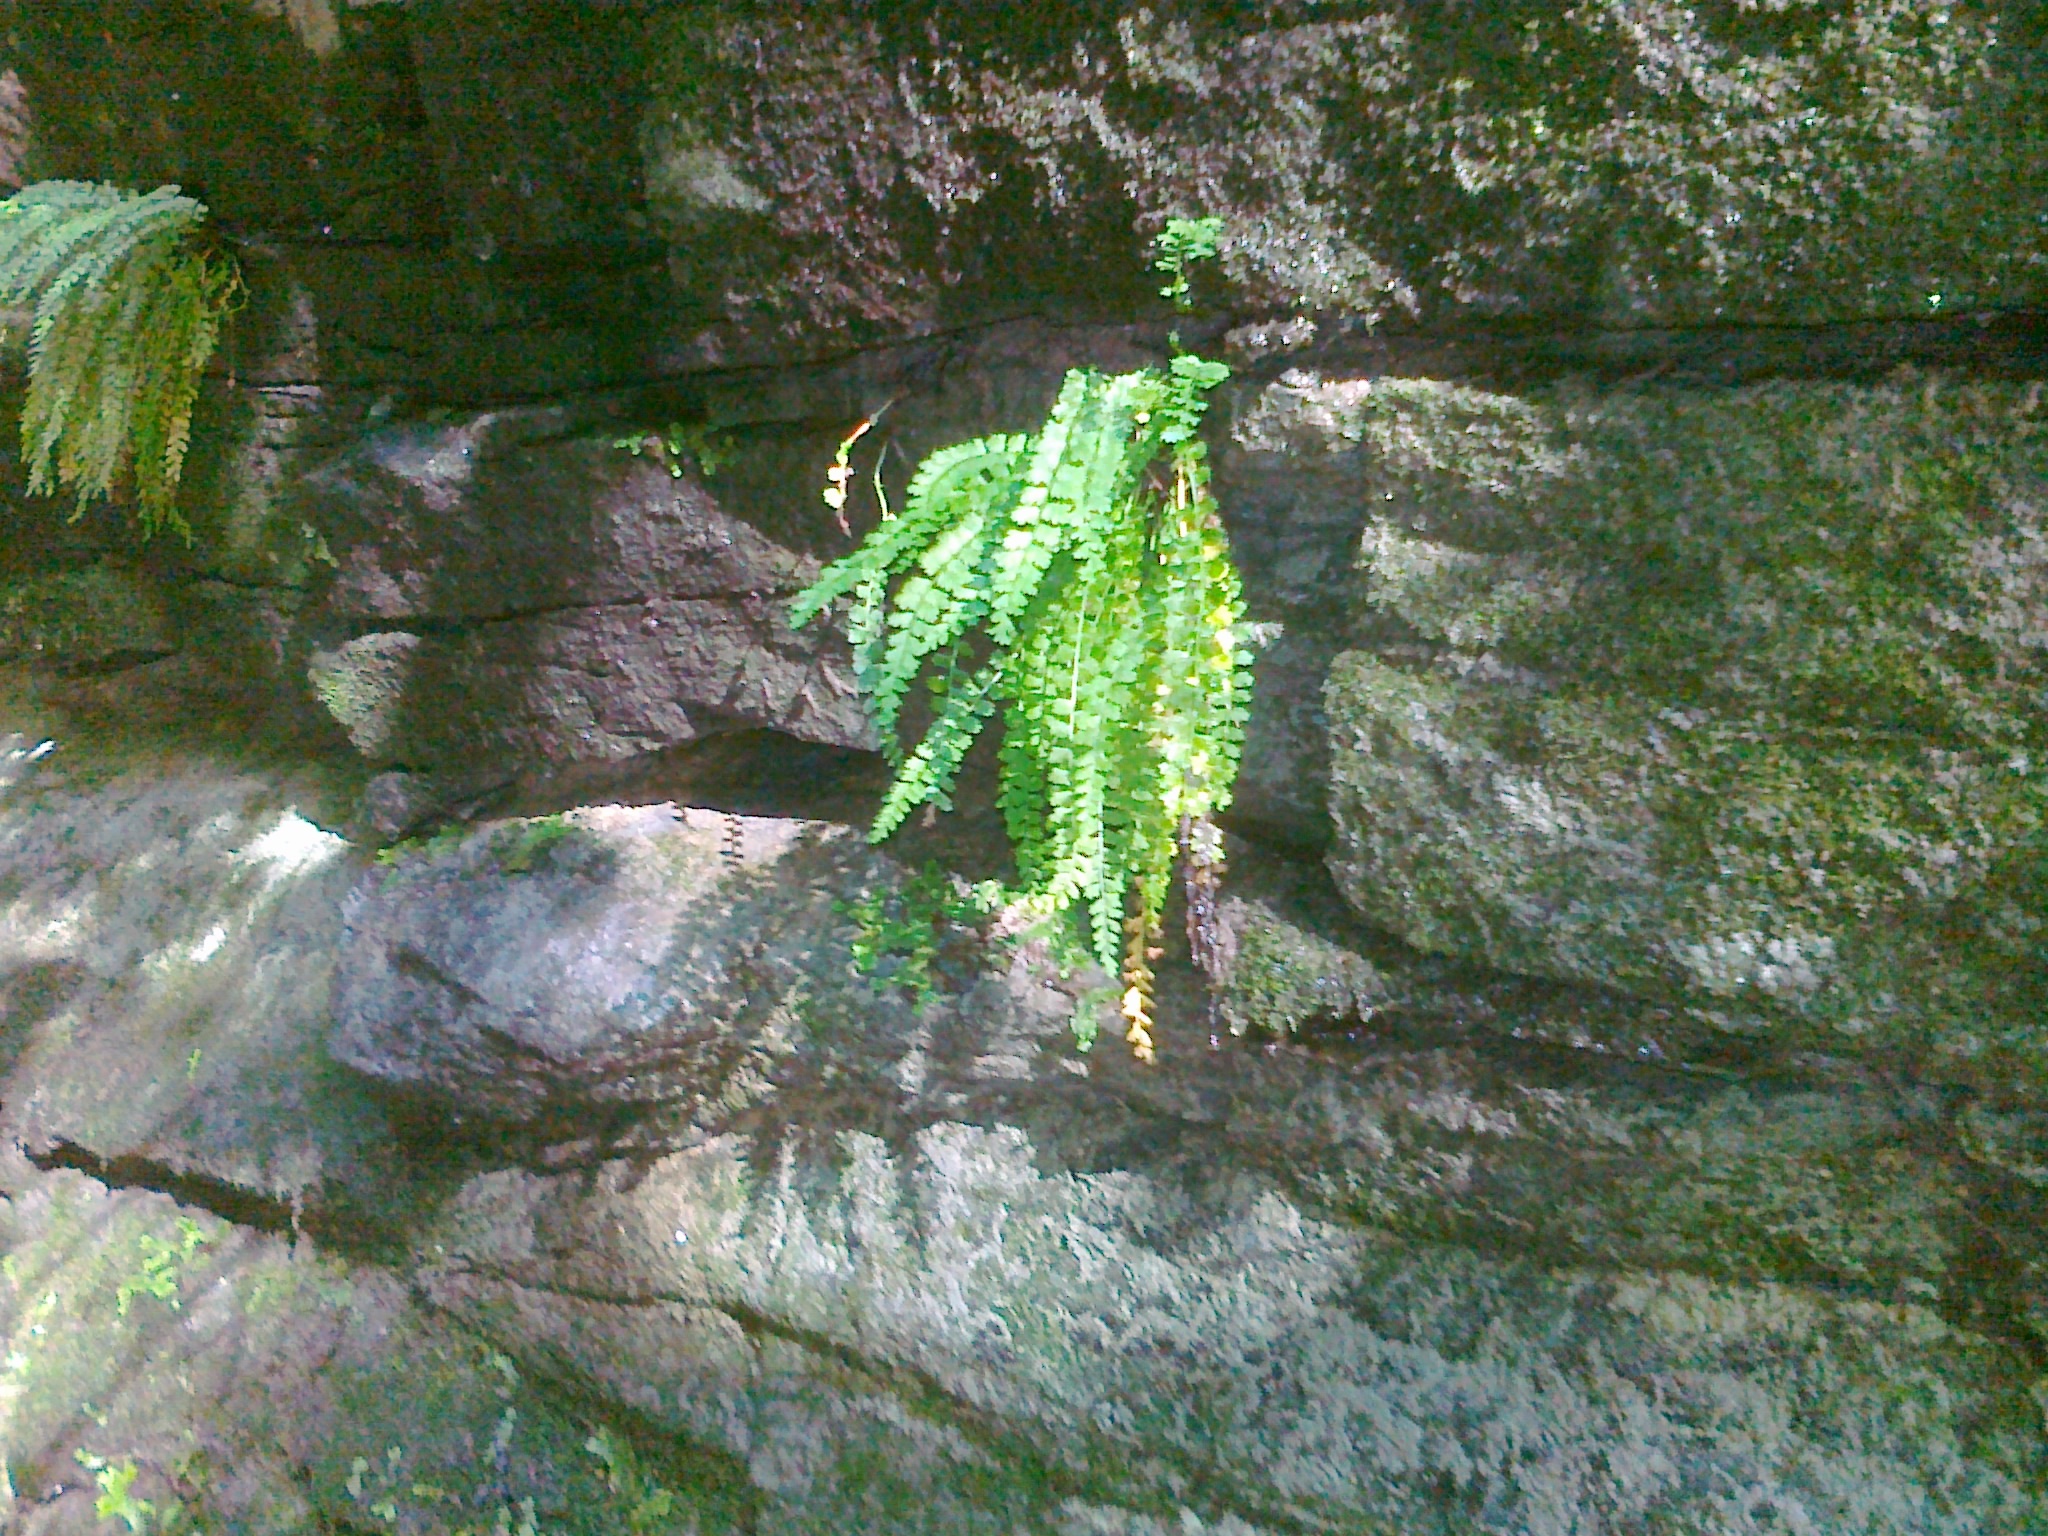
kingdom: Plantae
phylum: Tracheophyta
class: Polypodiopsida
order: Polypodiales
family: Aspleniaceae
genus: Asplenium
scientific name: Asplenium viride
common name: Green spleenwort
